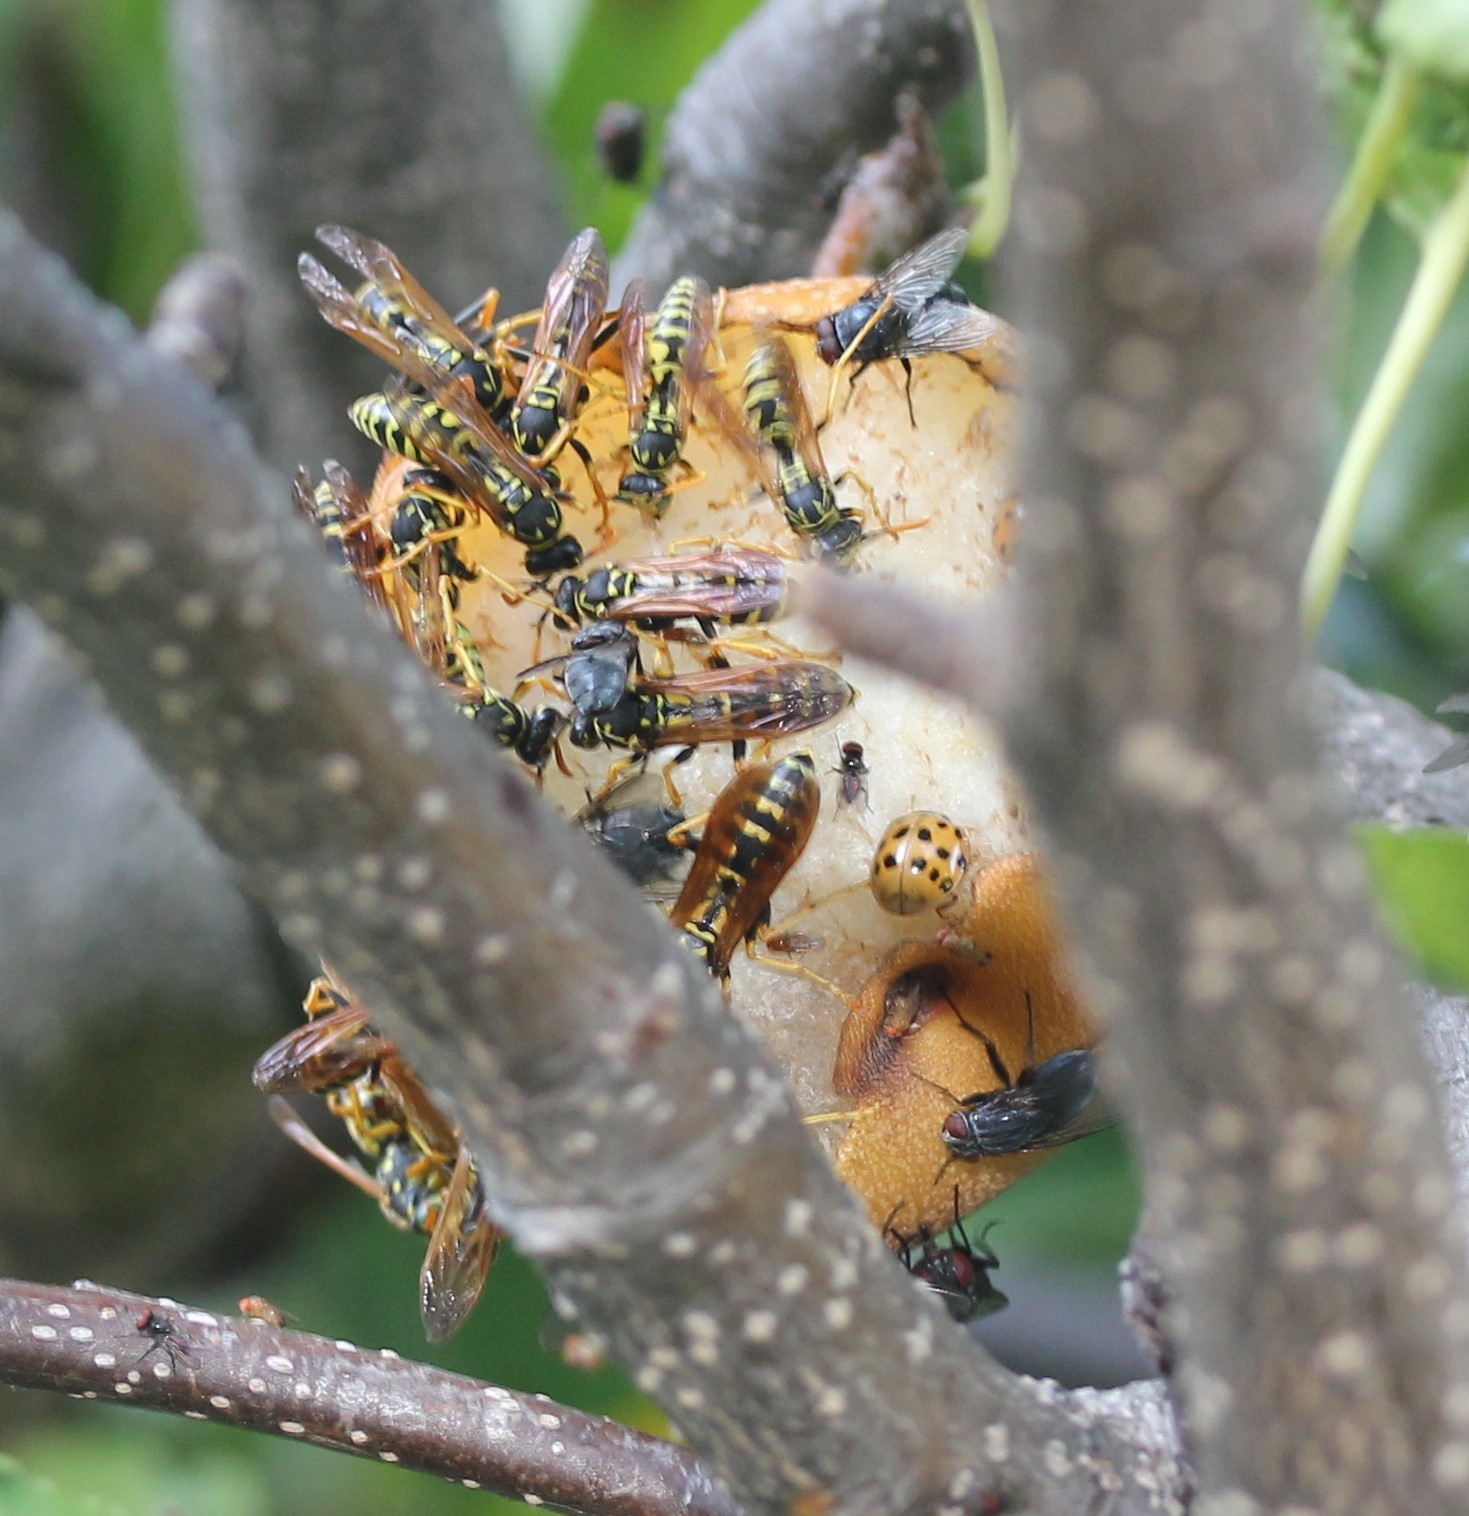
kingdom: Animalia
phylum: Arthropoda
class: Insecta
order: Hymenoptera
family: Eumenidae
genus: Polistes
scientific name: Polistes dominula
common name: Paper wasp
